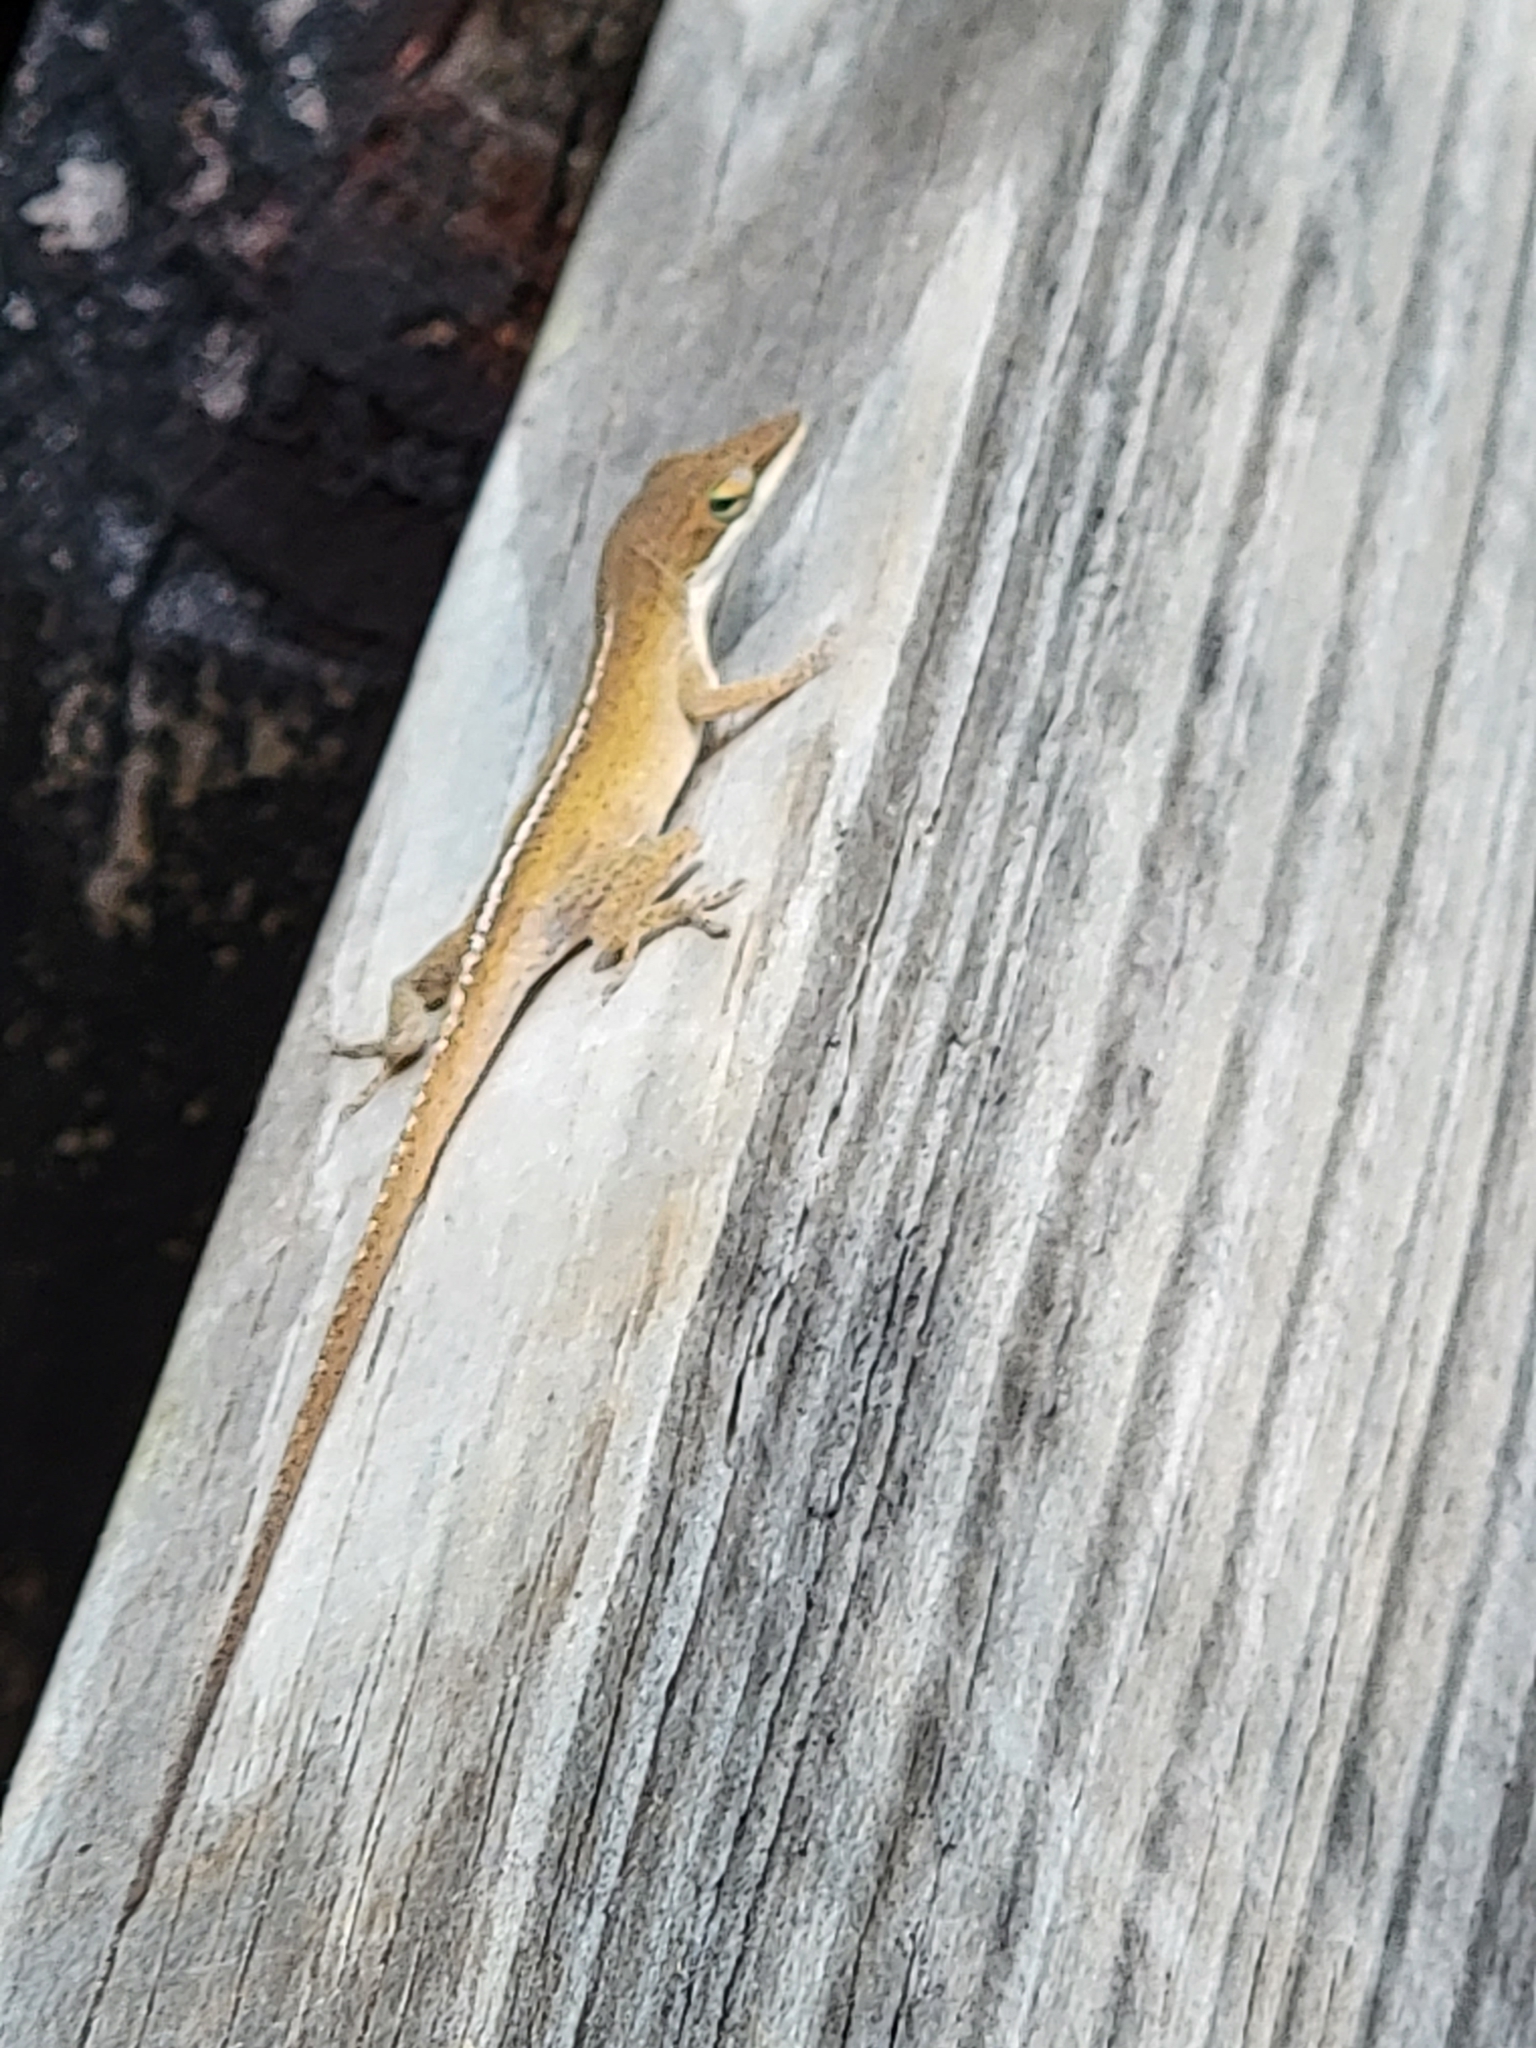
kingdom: Animalia
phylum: Chordata
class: Squamata
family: Dactyloidae
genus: Anolis
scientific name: Anolis carolinensis
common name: Green anole
